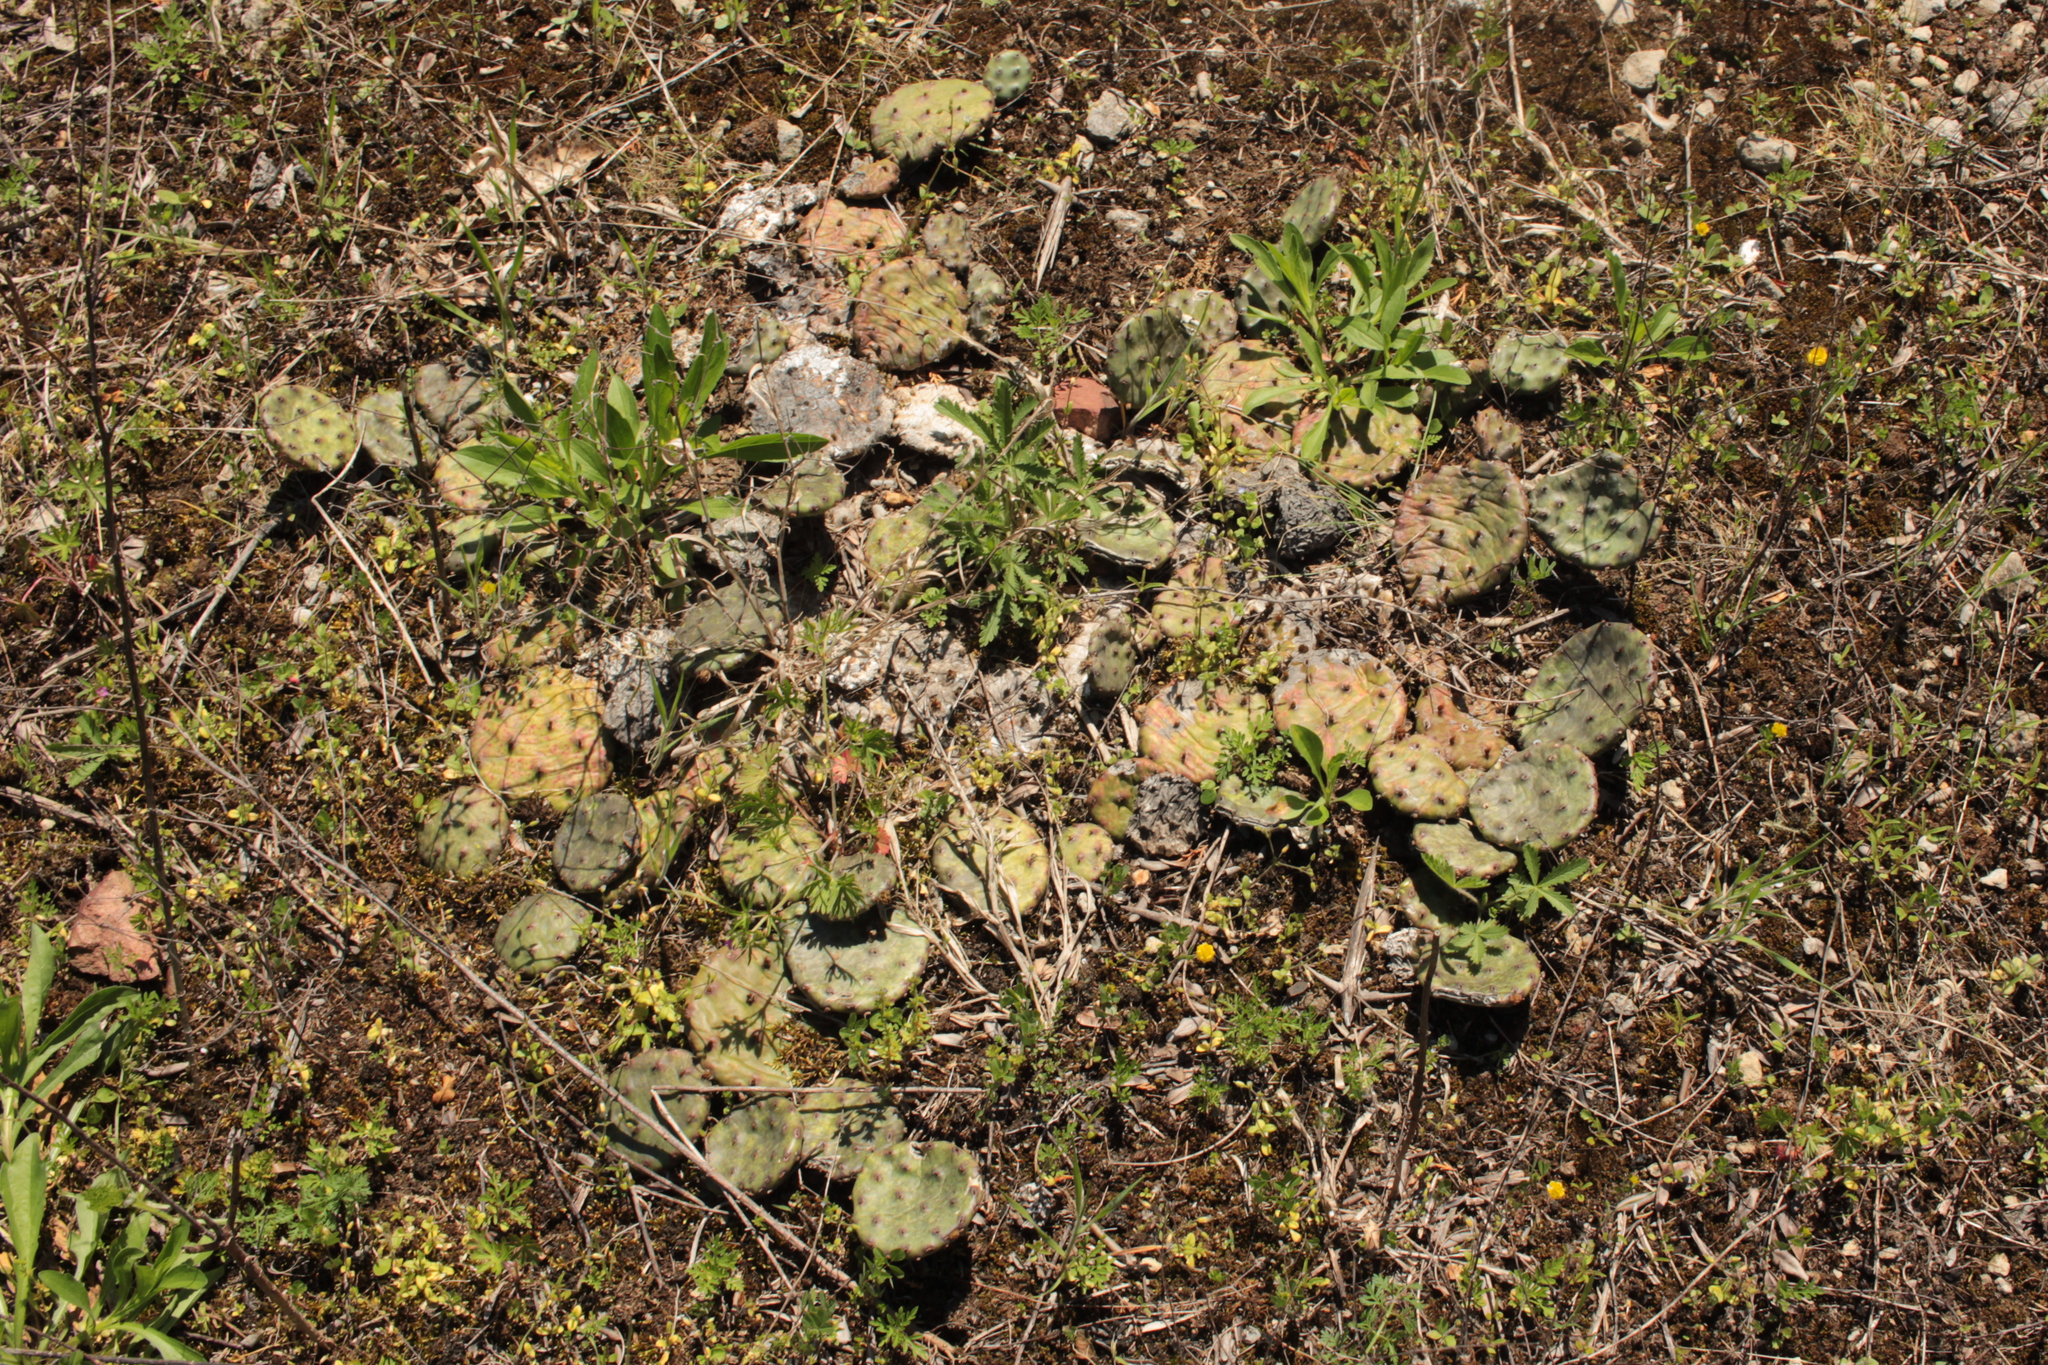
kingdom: Plantae
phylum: Tracheophyta
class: Magnoliopsida
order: Caryophyllales
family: Cactaceae
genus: Opuntia
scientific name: Opuntia humifusa
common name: Eastern prickly-pear
